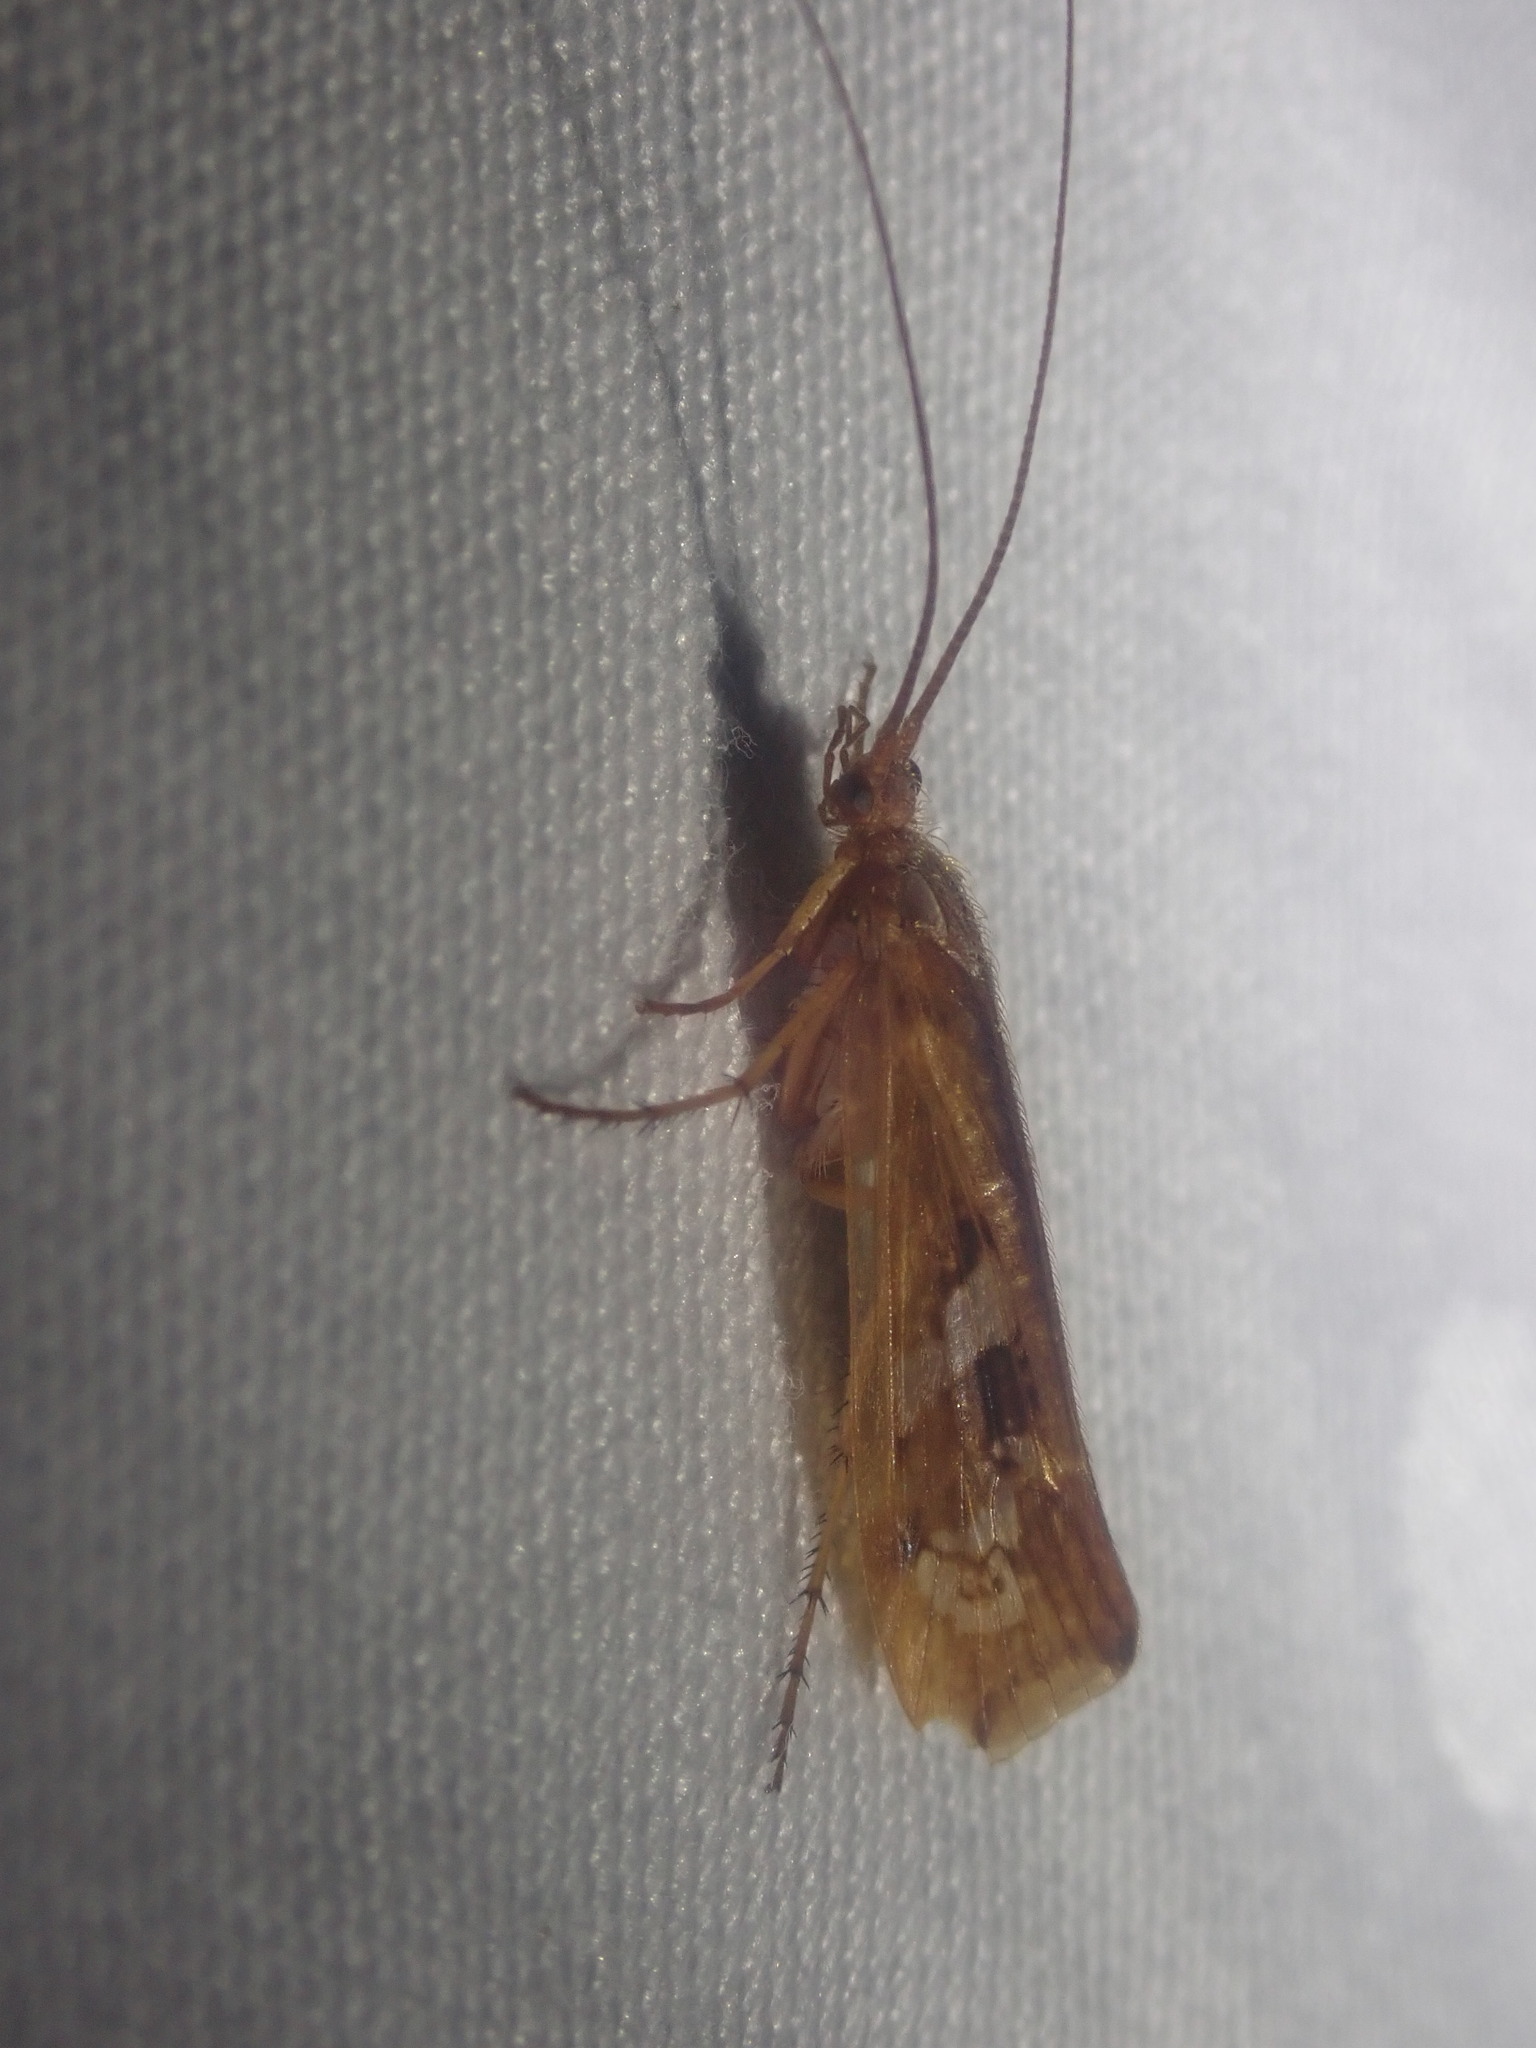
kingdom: Animalia
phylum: Arthropoda
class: Insecta
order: Trichoptera
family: Limnephilidae
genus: Limnephilus
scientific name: Limnephilus lunatus
